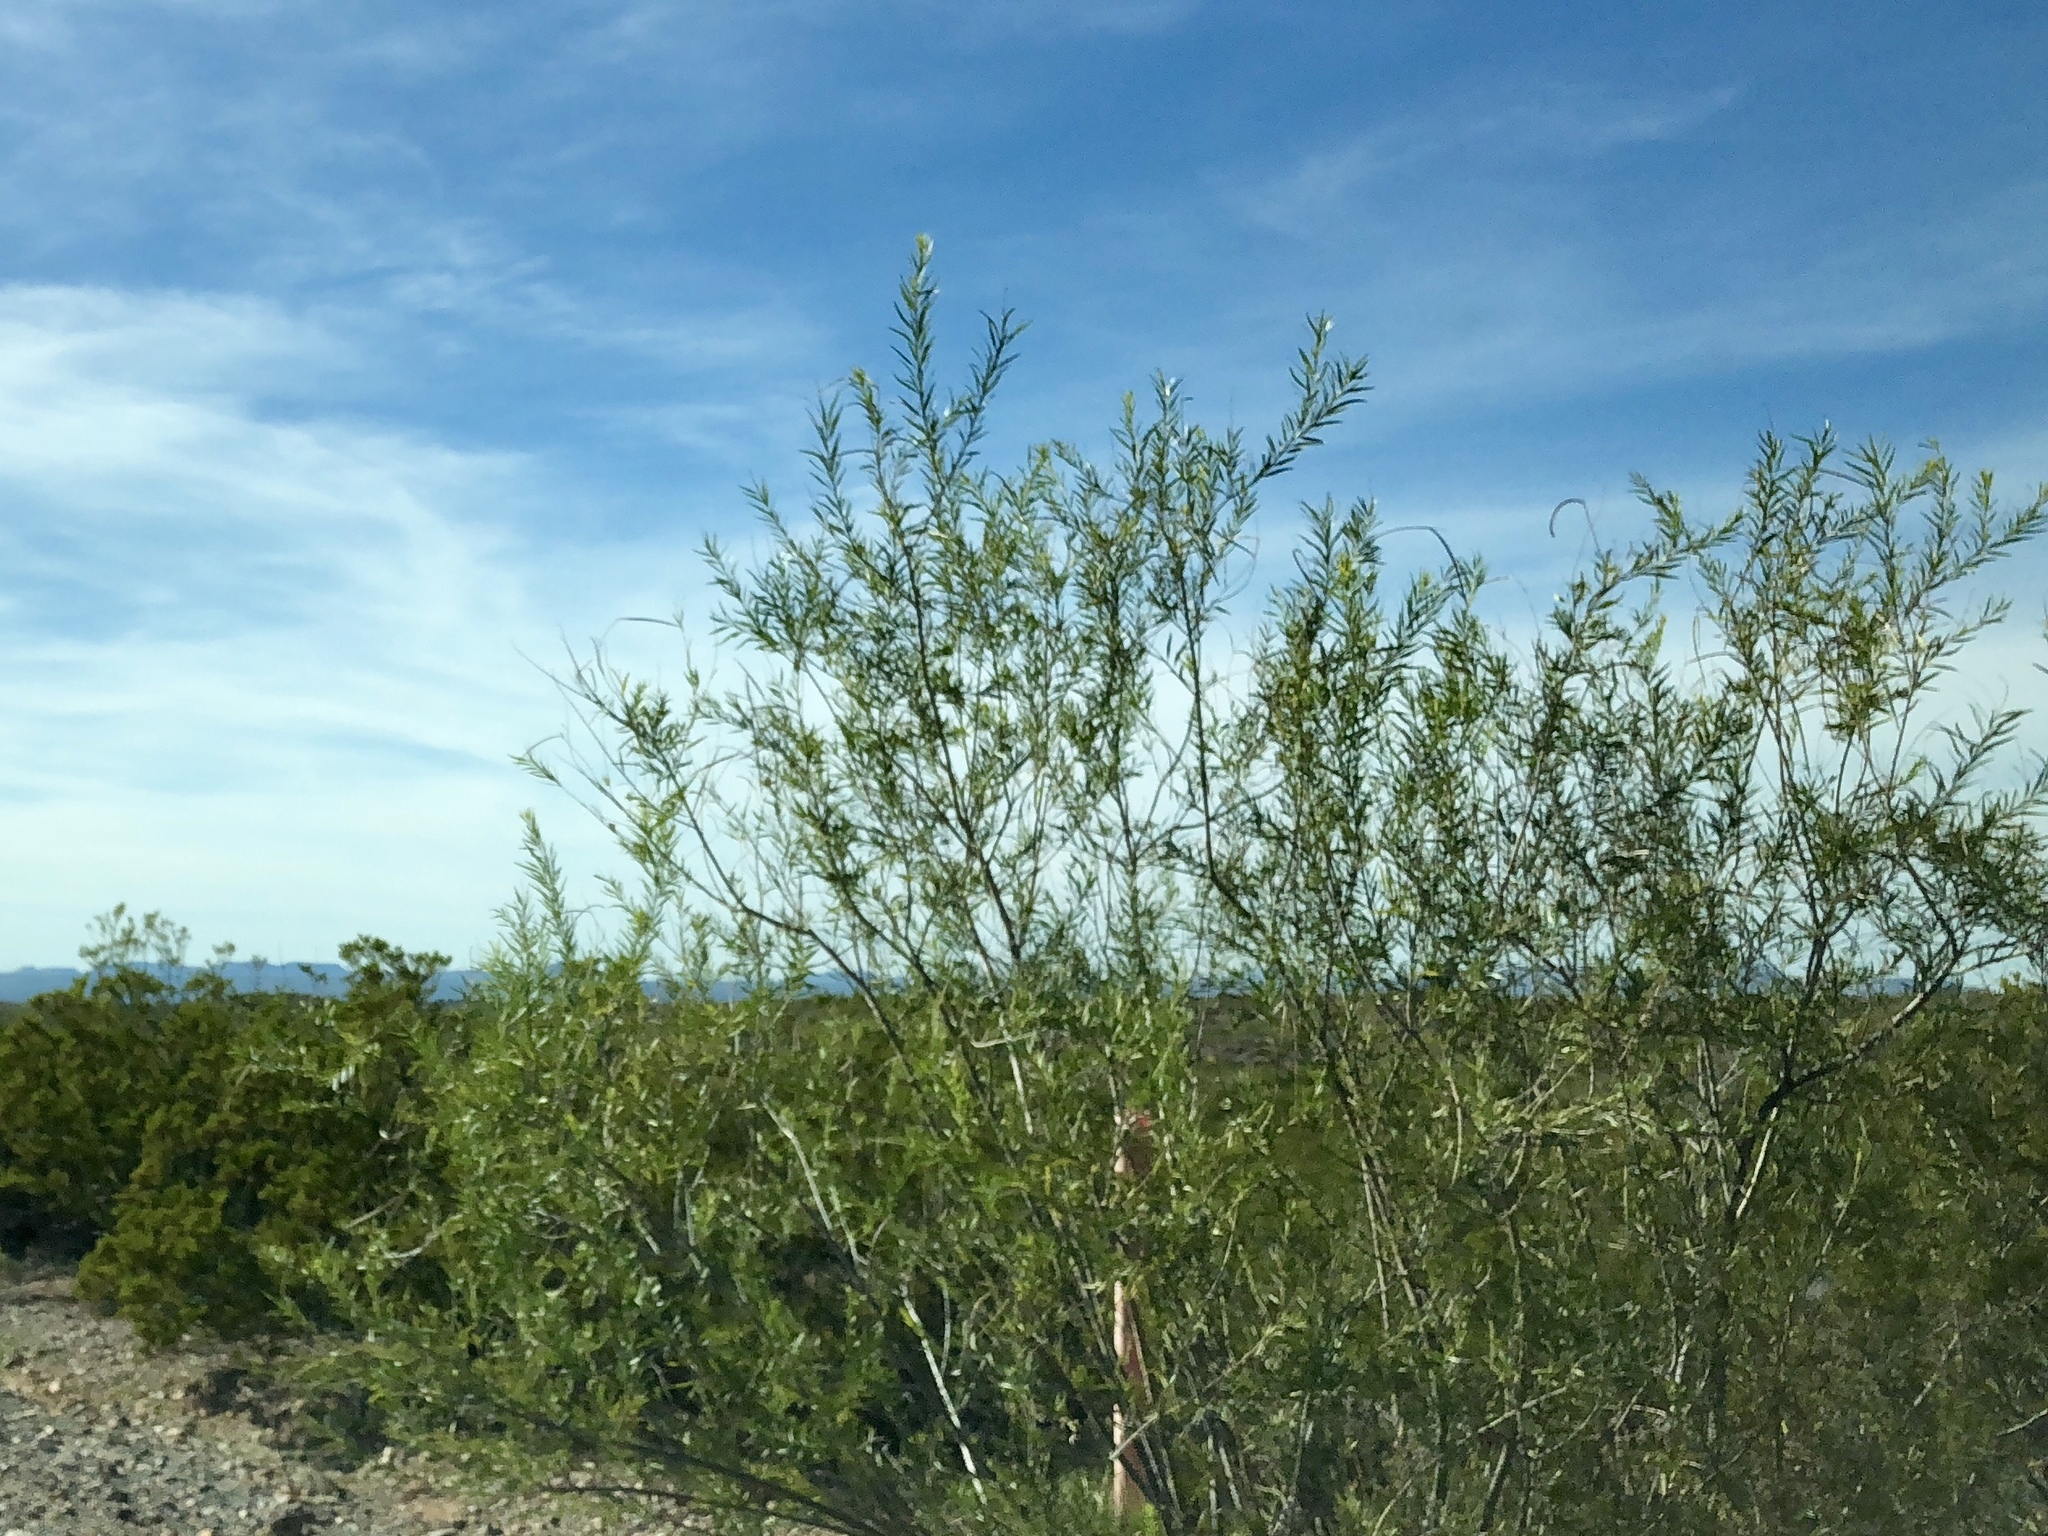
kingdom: Plantae
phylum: Tracheophyta
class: Magnoliopsida
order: Lamiales
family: Bignoniaceae
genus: Chilopsis
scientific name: Chilopsis linearis
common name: Desert-willow
